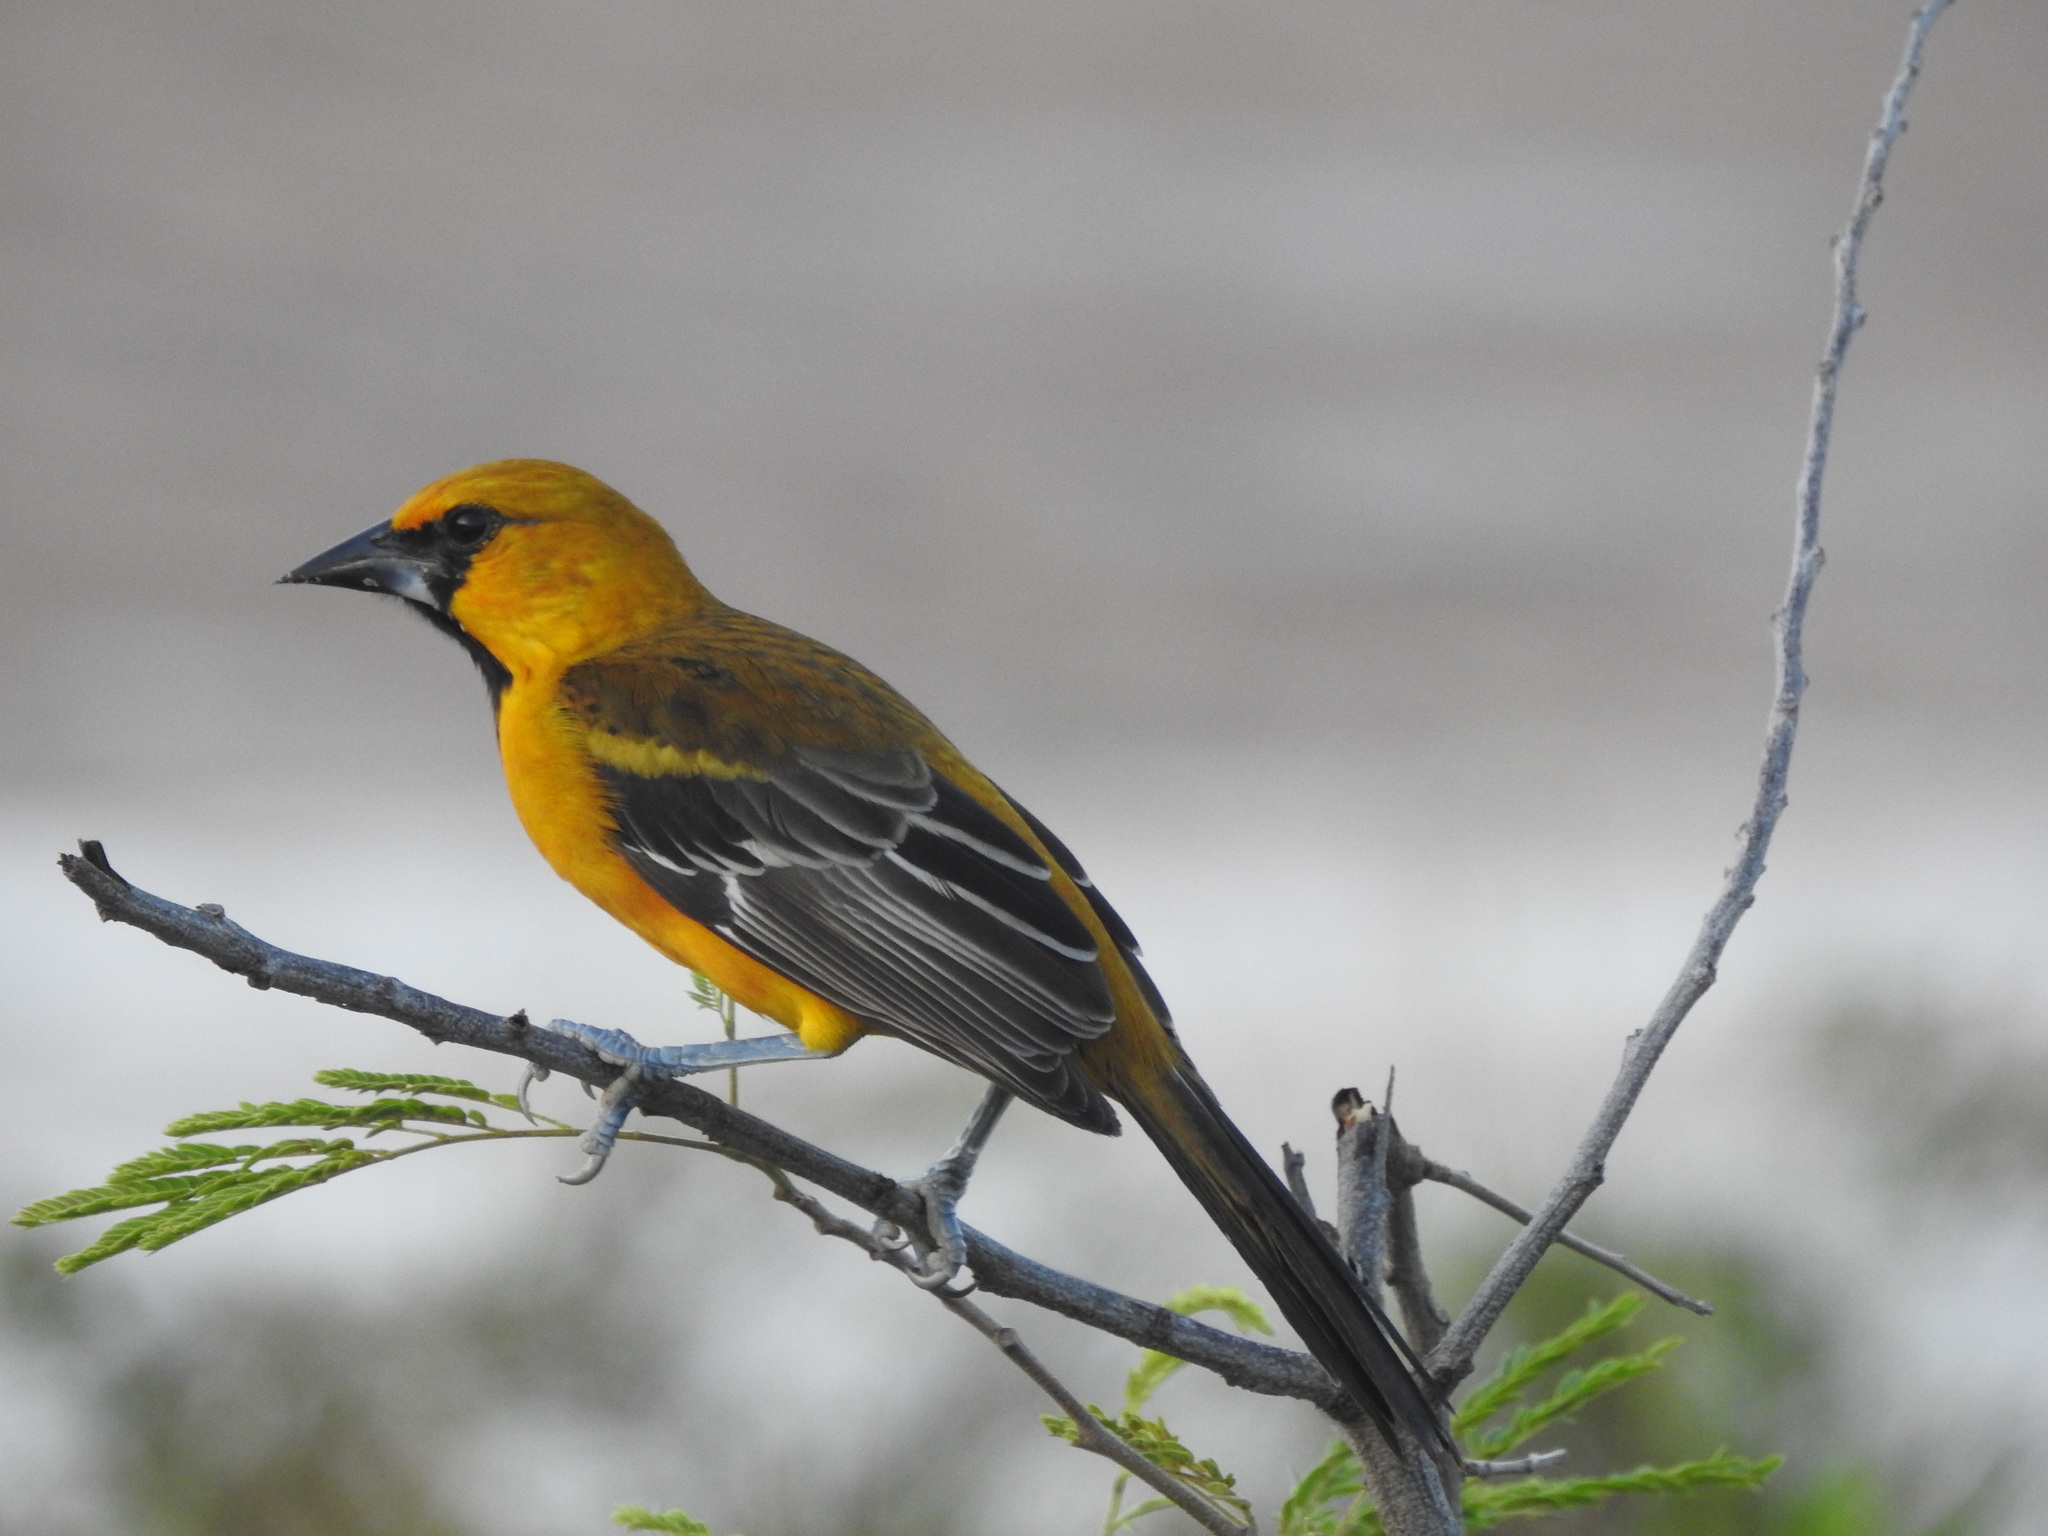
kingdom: Animalia
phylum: Chordata
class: Aves
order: Passeriformes
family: Icteridae
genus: Icterus
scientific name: Icterus gularis
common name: Altamira oriole
